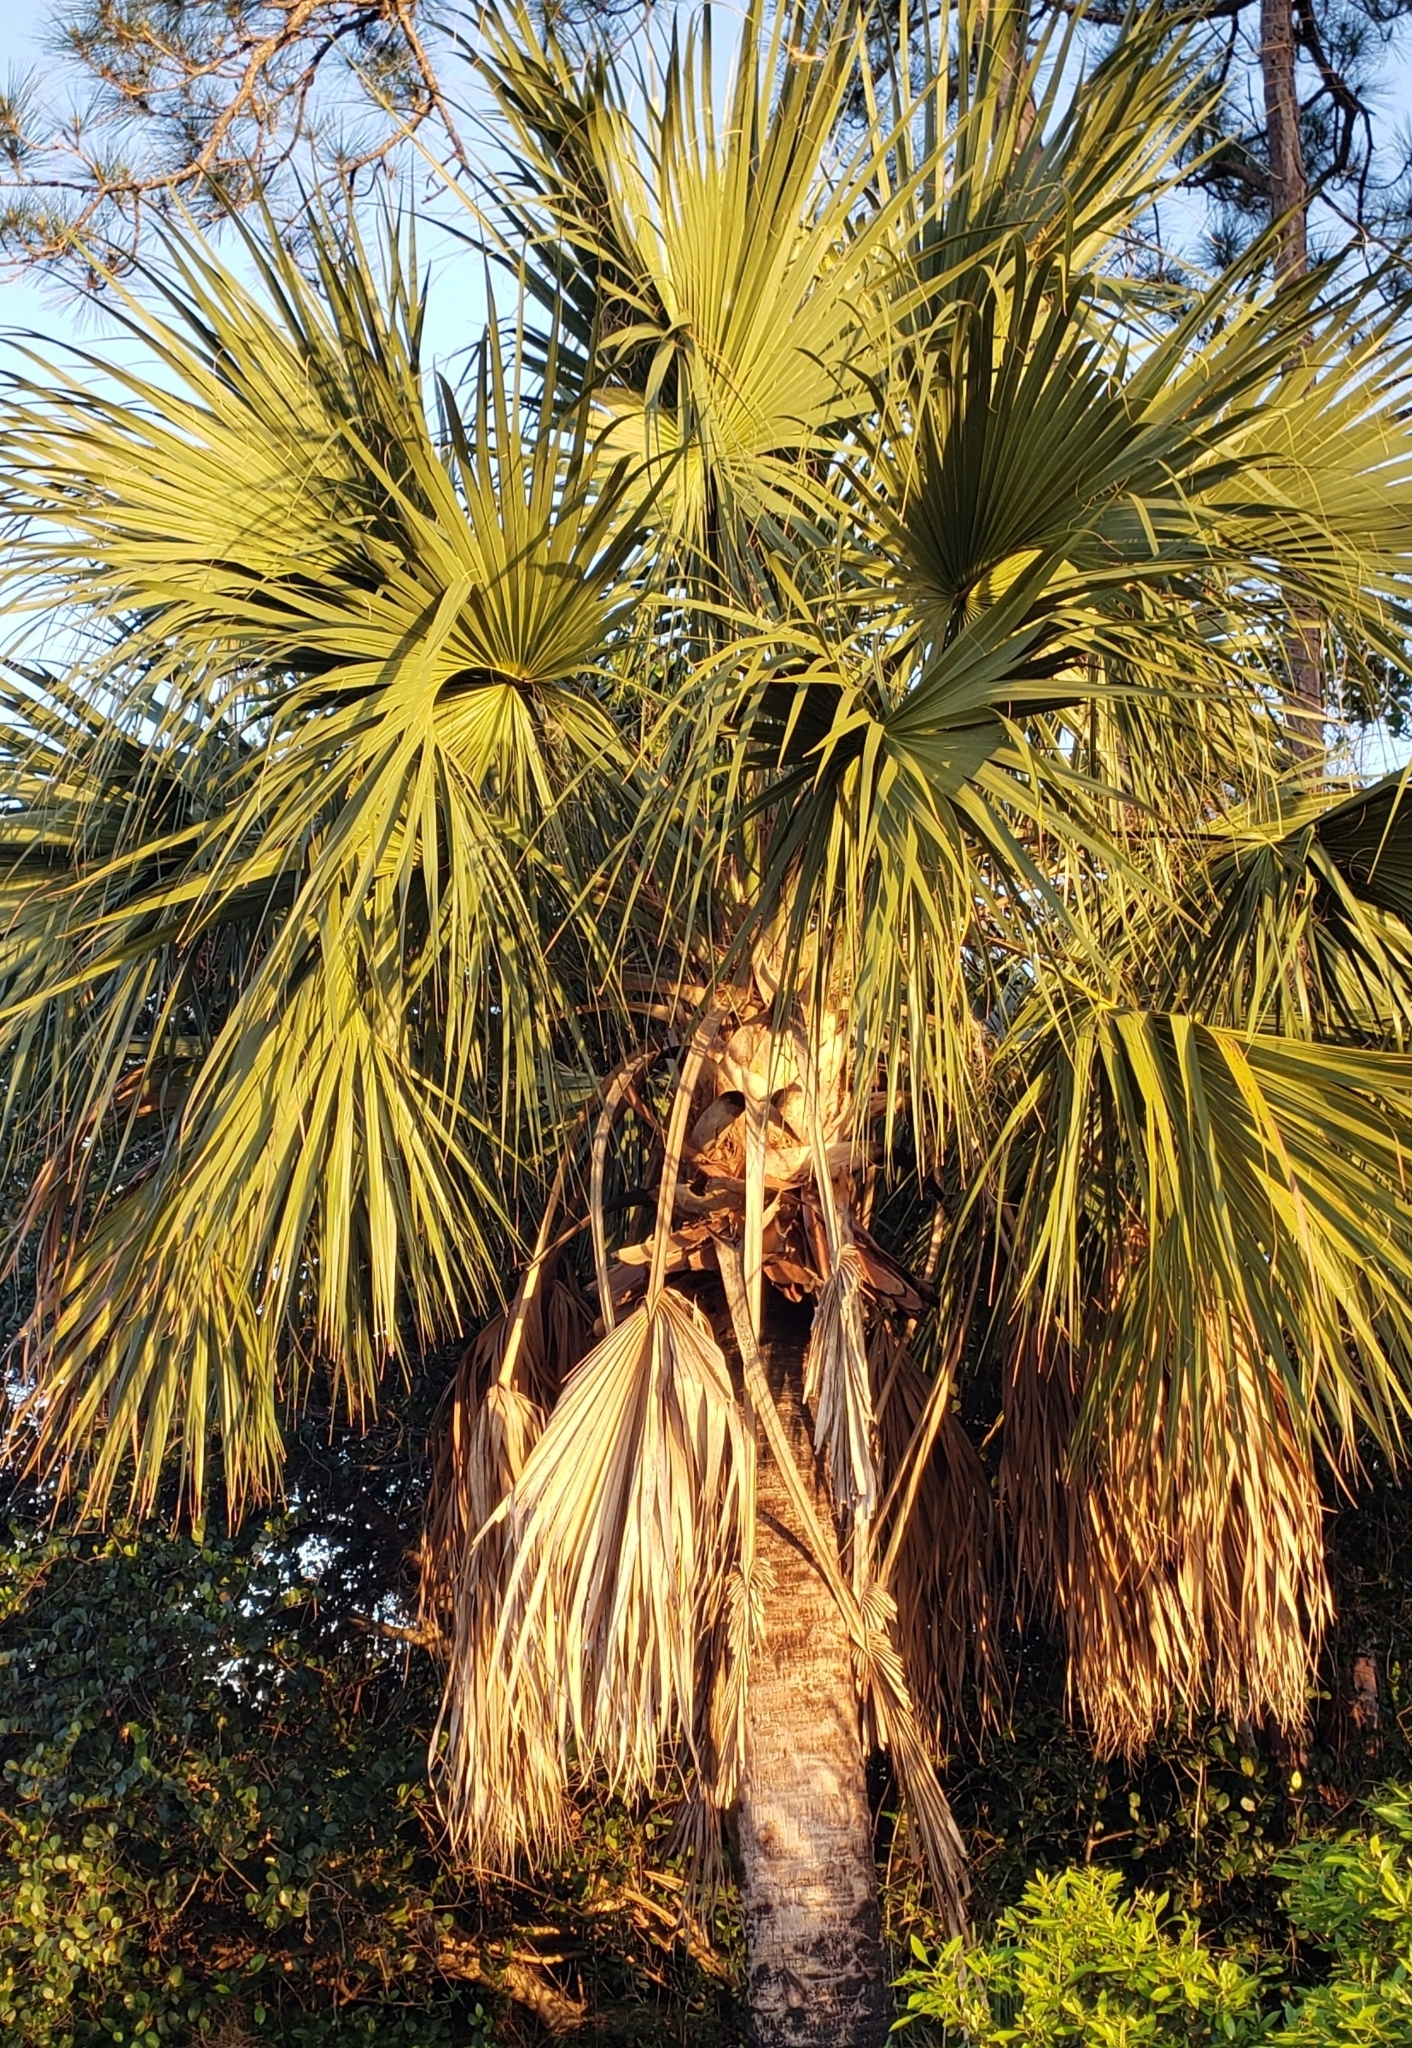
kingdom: Plantae
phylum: Tracheophyta
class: Liliopsida
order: Arecales
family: Arecaceae
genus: Sabal
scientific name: Sabal palmetto
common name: Blue palmetto
